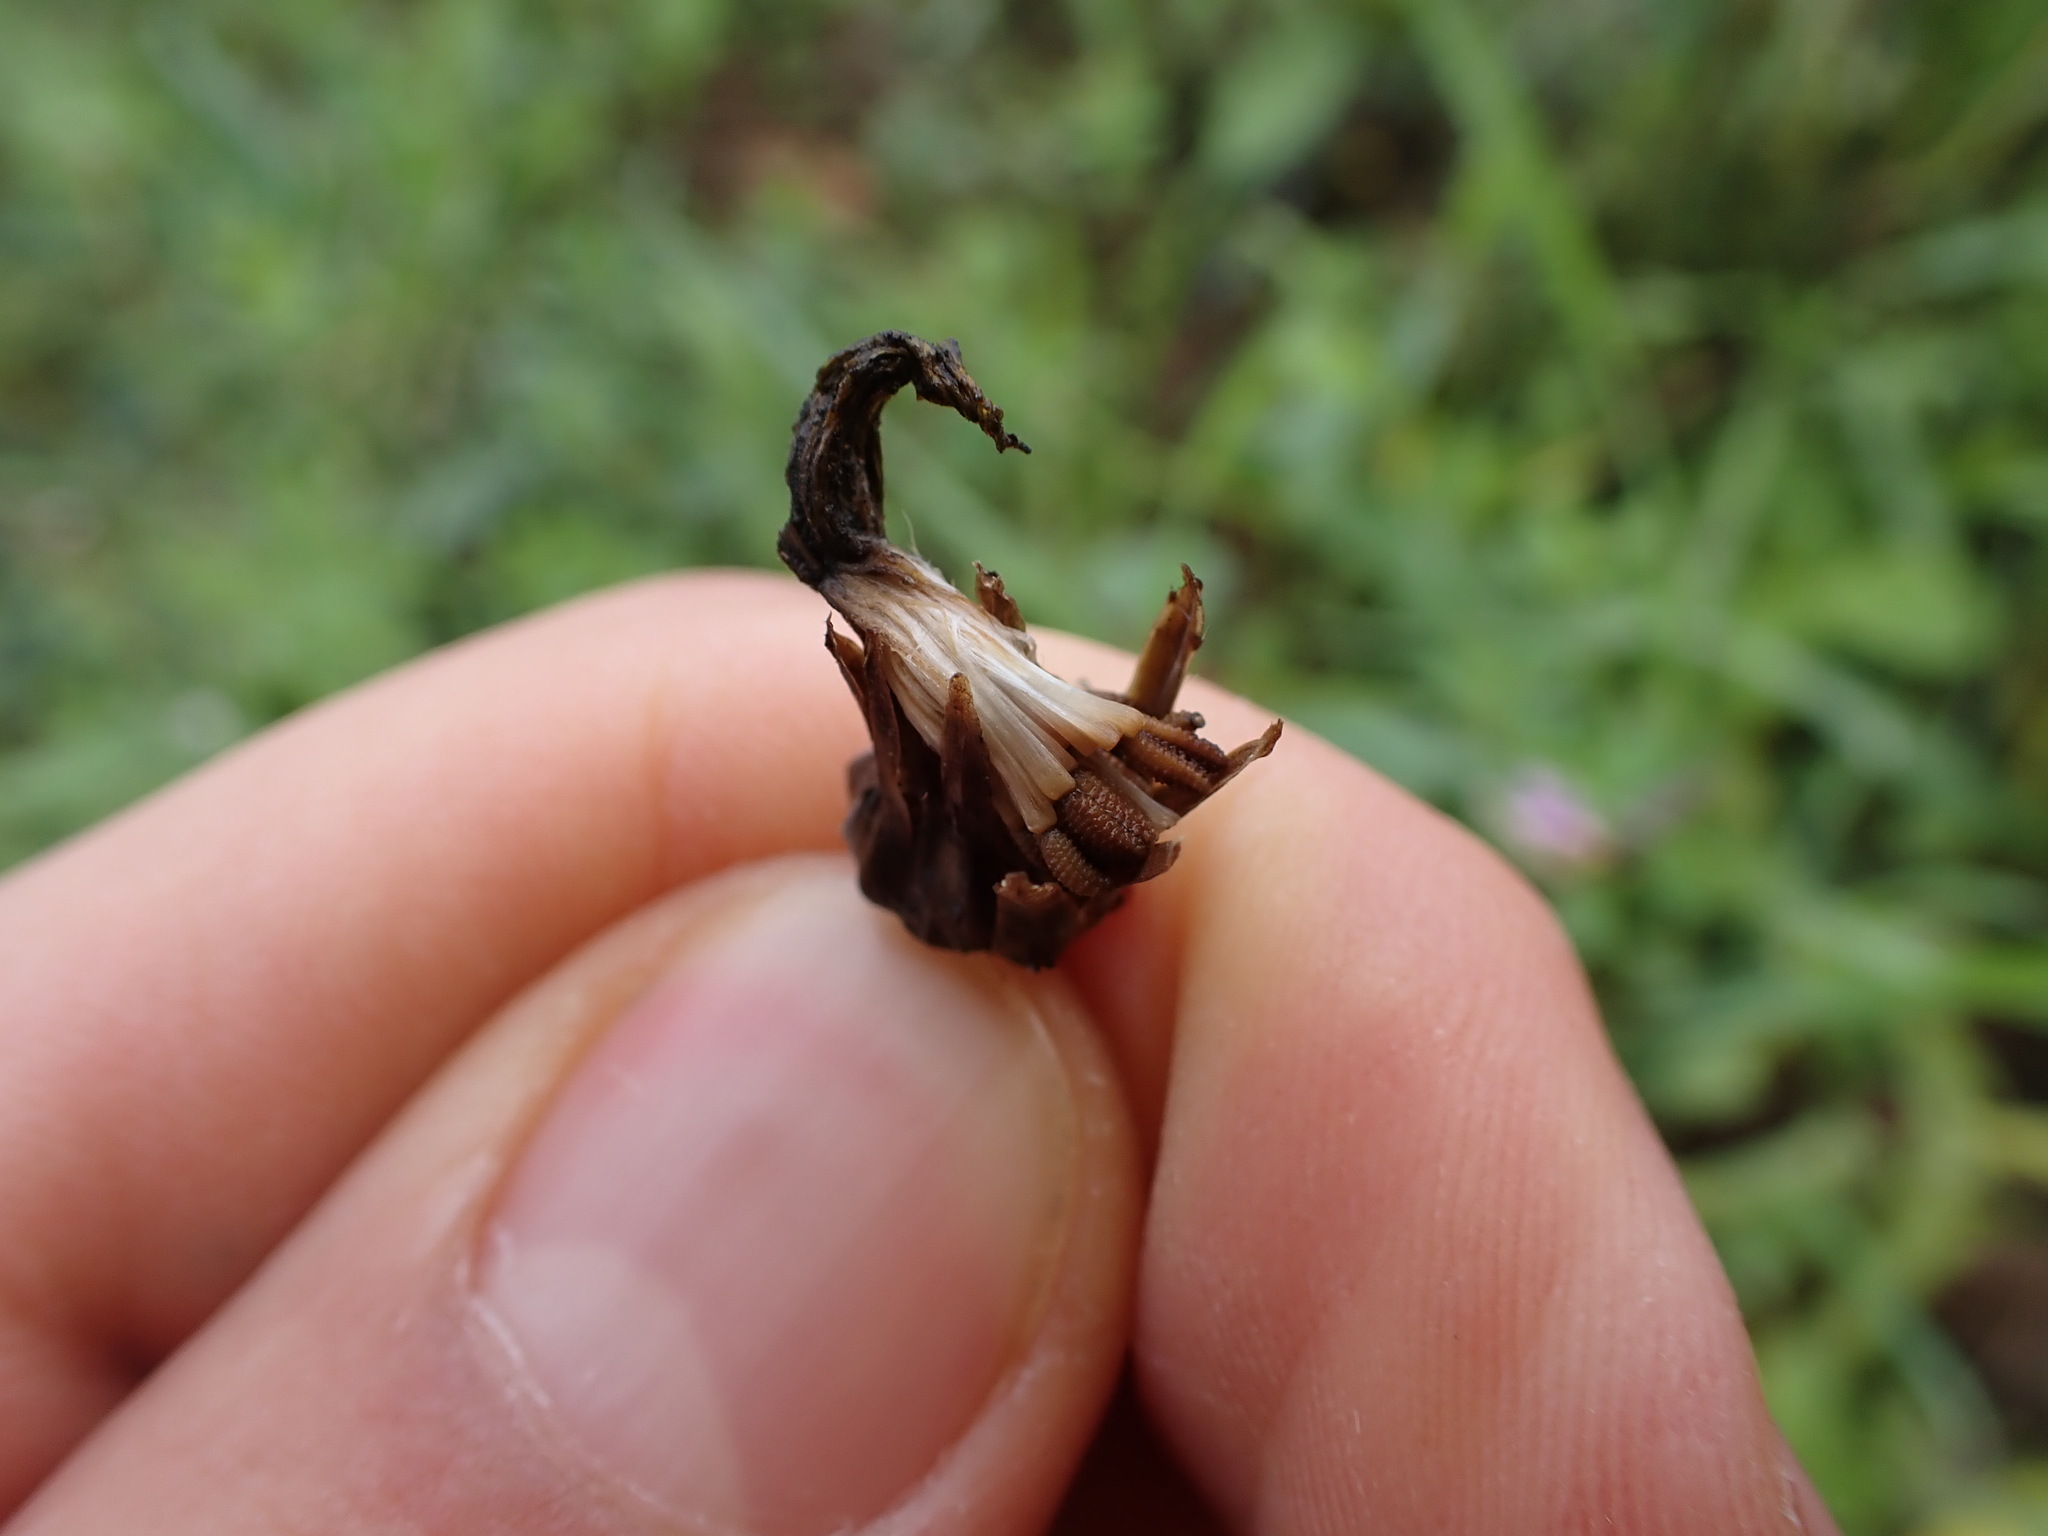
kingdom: Plantae
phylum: Tracheophyta
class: Magnoliopsida
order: Caryophyllales
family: Caryophyllaceae
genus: Petrorhagia
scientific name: Petrorhagia prolifera
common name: Proliferous pink
